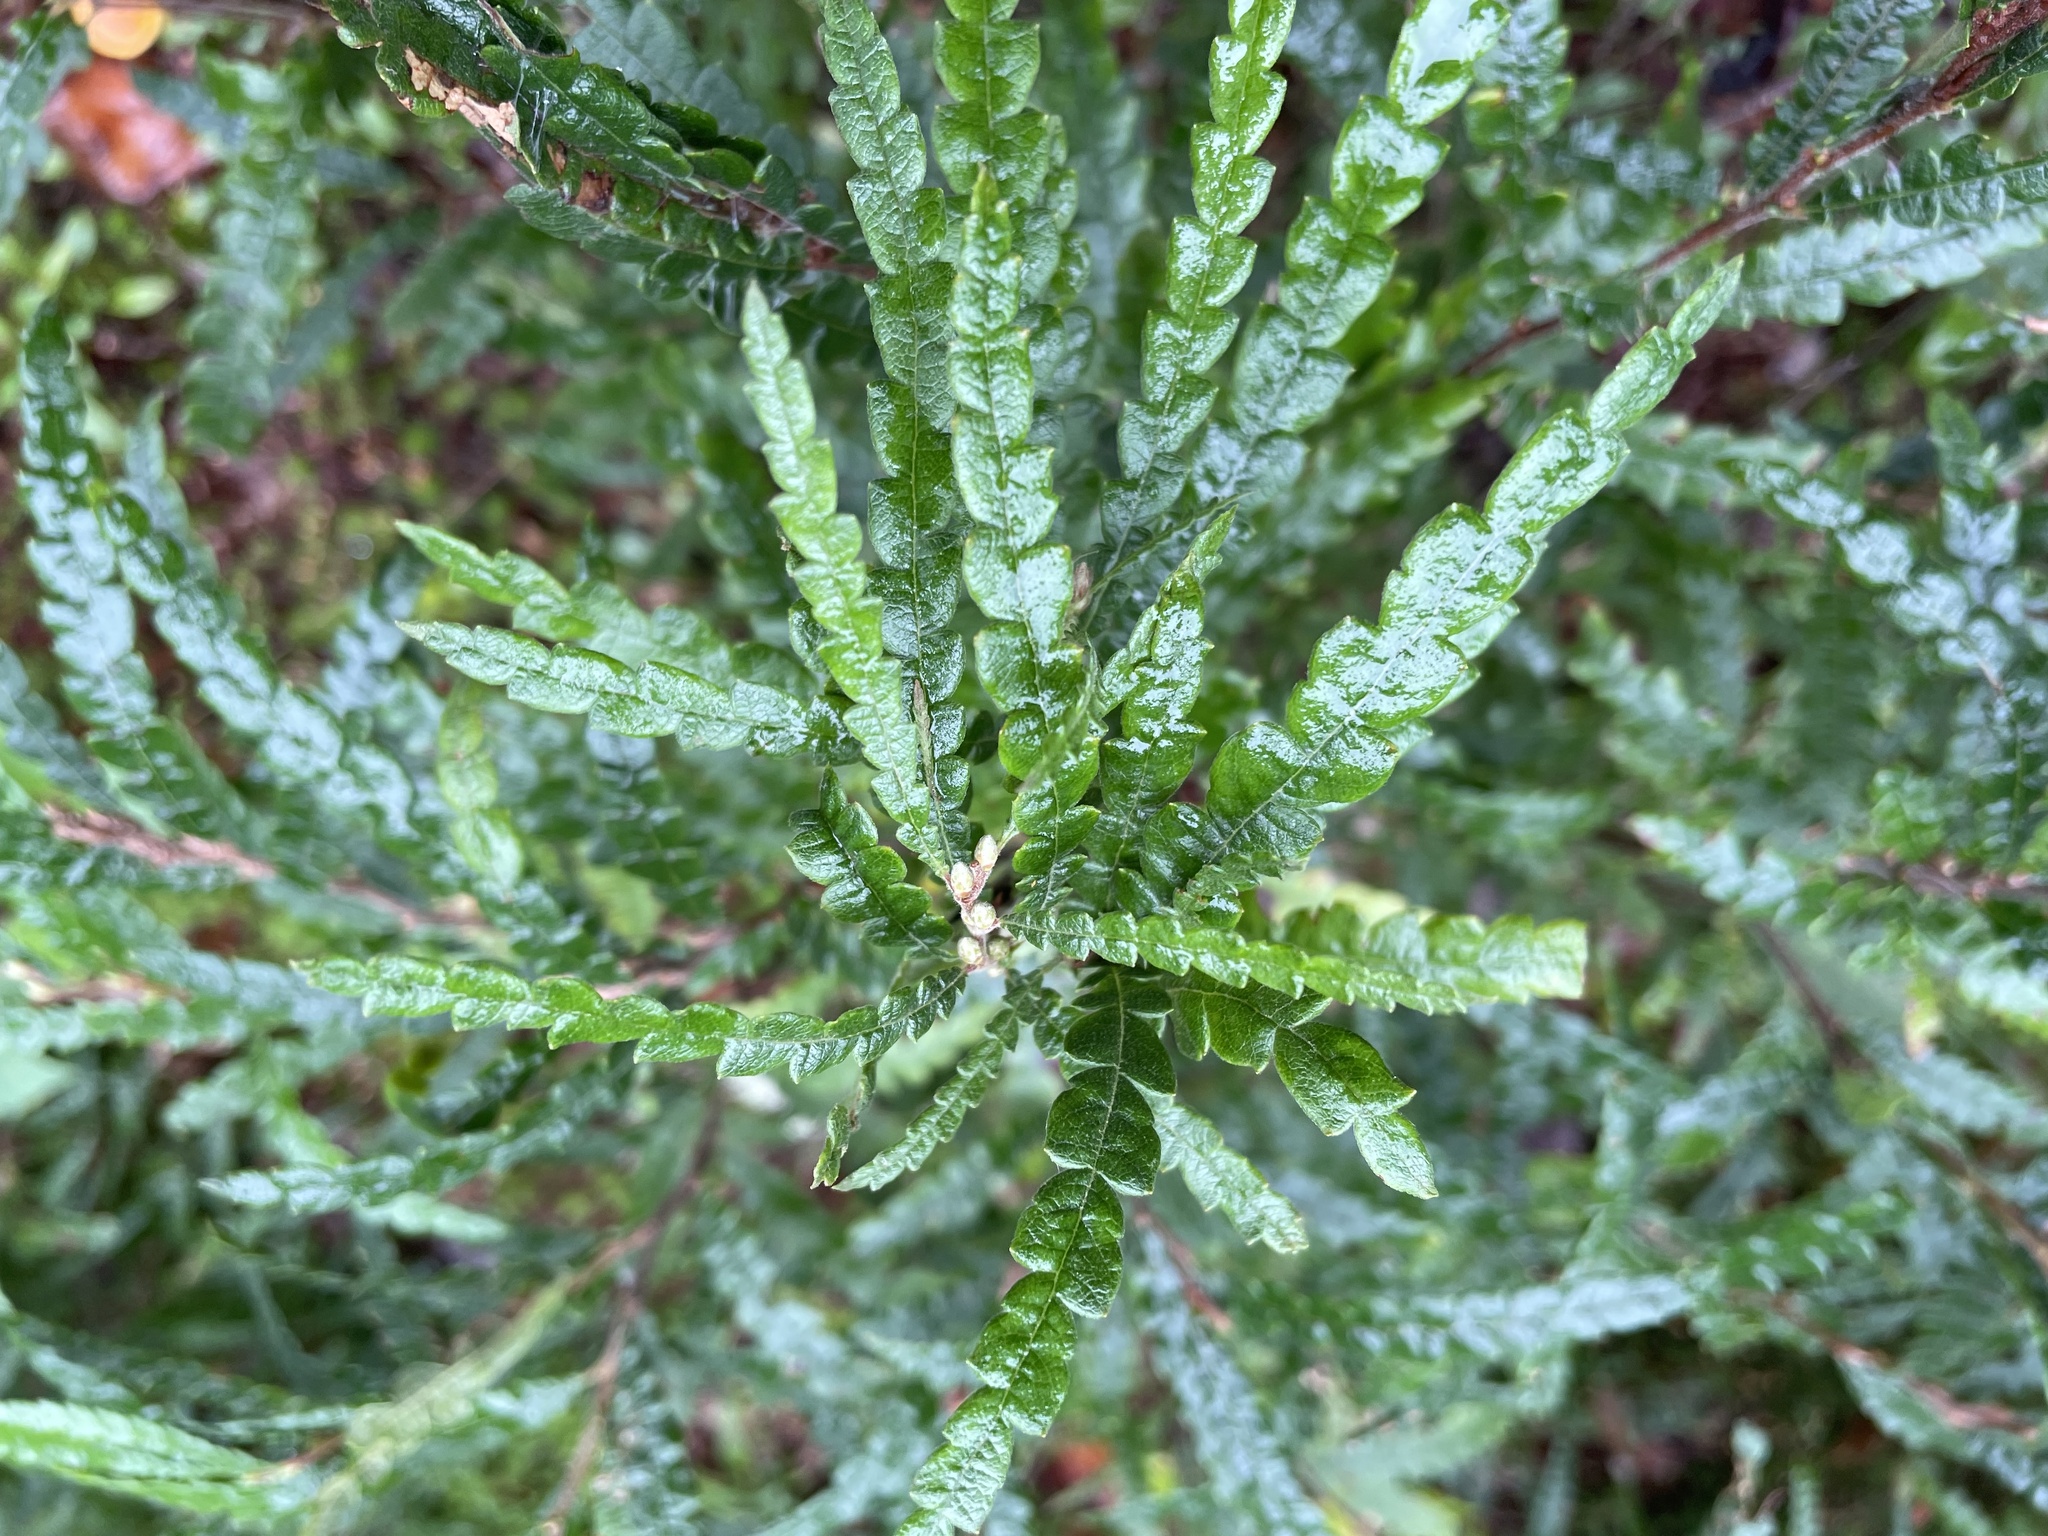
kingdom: Plantae
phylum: Tracheophyta
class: Magnoliopsida
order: Fagales
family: Myricaceae
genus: Comptonia
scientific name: Comptonia peregrina
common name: Sweet-fern
